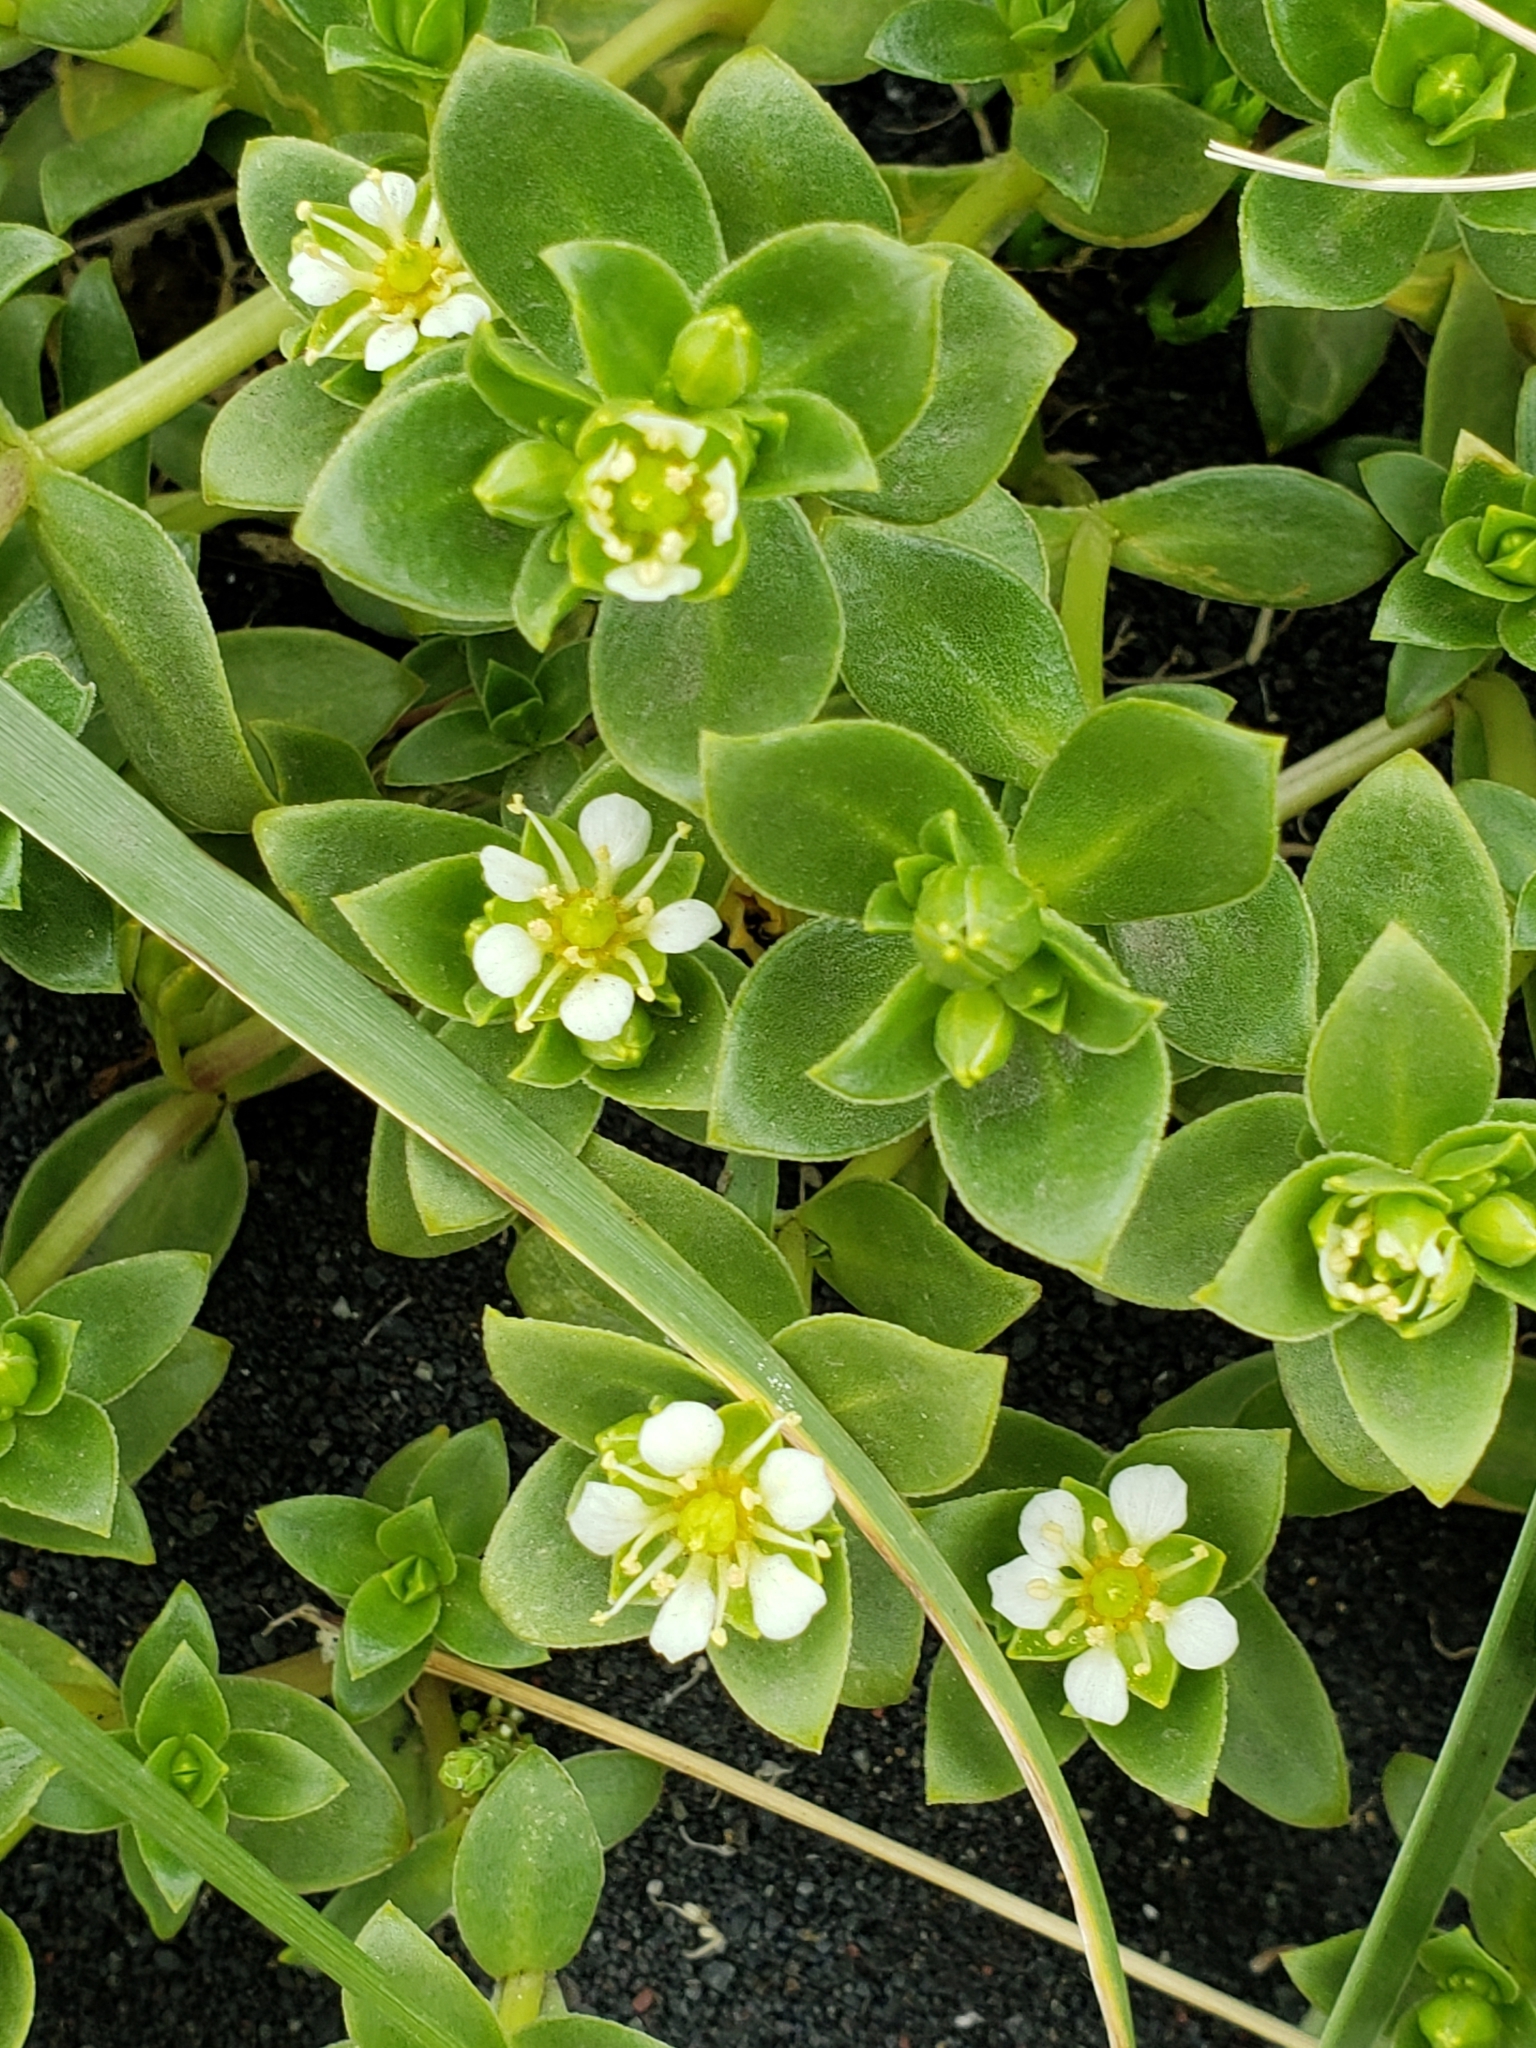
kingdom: Plantae
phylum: Tracheophyta
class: Magnoliopsida
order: Caryophyllales
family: Caryophyllaceae
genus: Honckenya
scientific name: Honckenya peploides
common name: Sea sandwort
